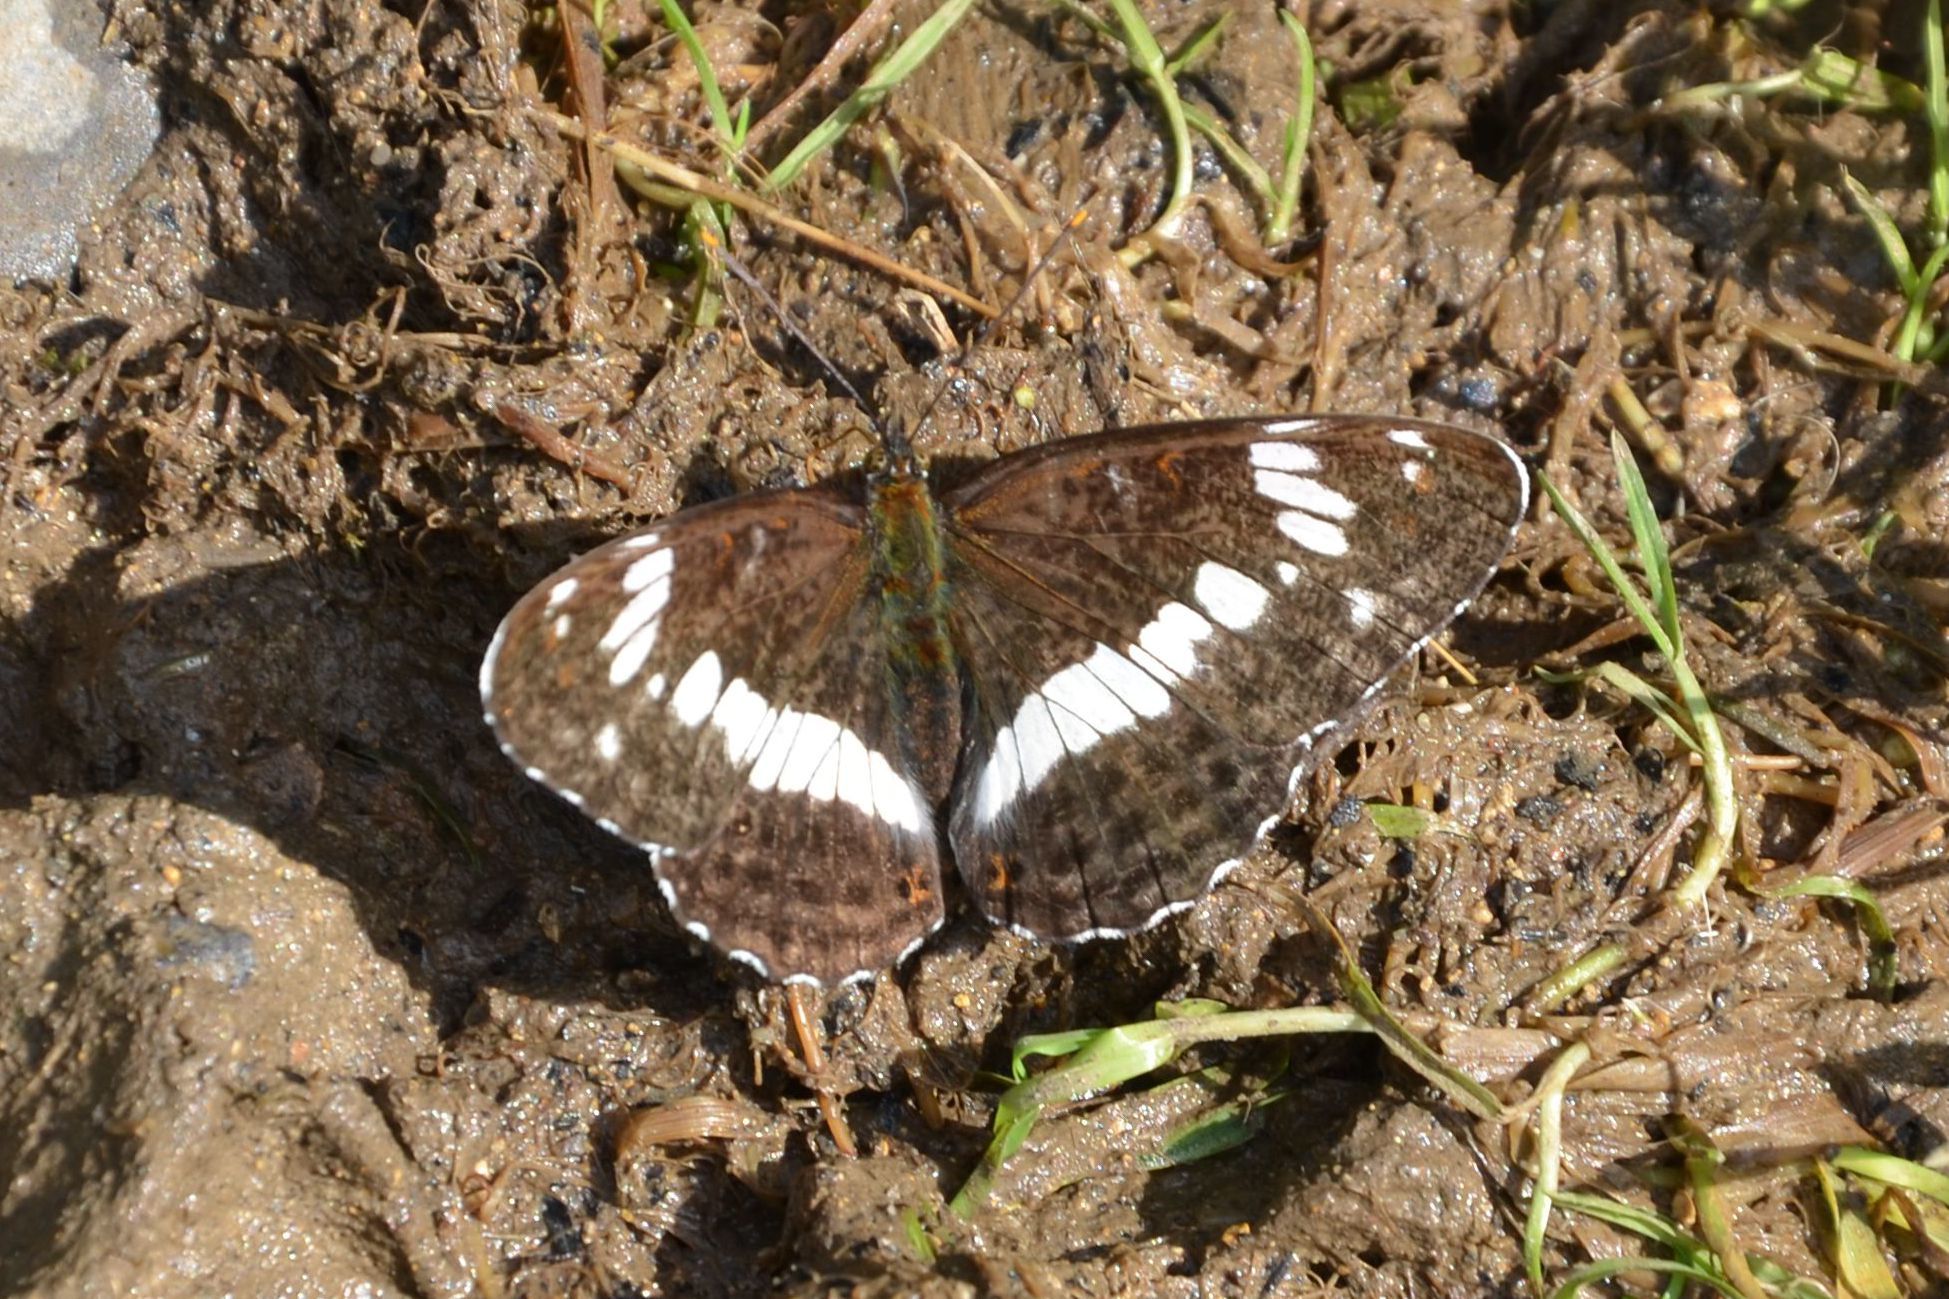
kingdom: Animalia
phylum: Arthropoda
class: Insecta
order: Lepidoptera
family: Nymphalidae
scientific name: Nymphalidae
